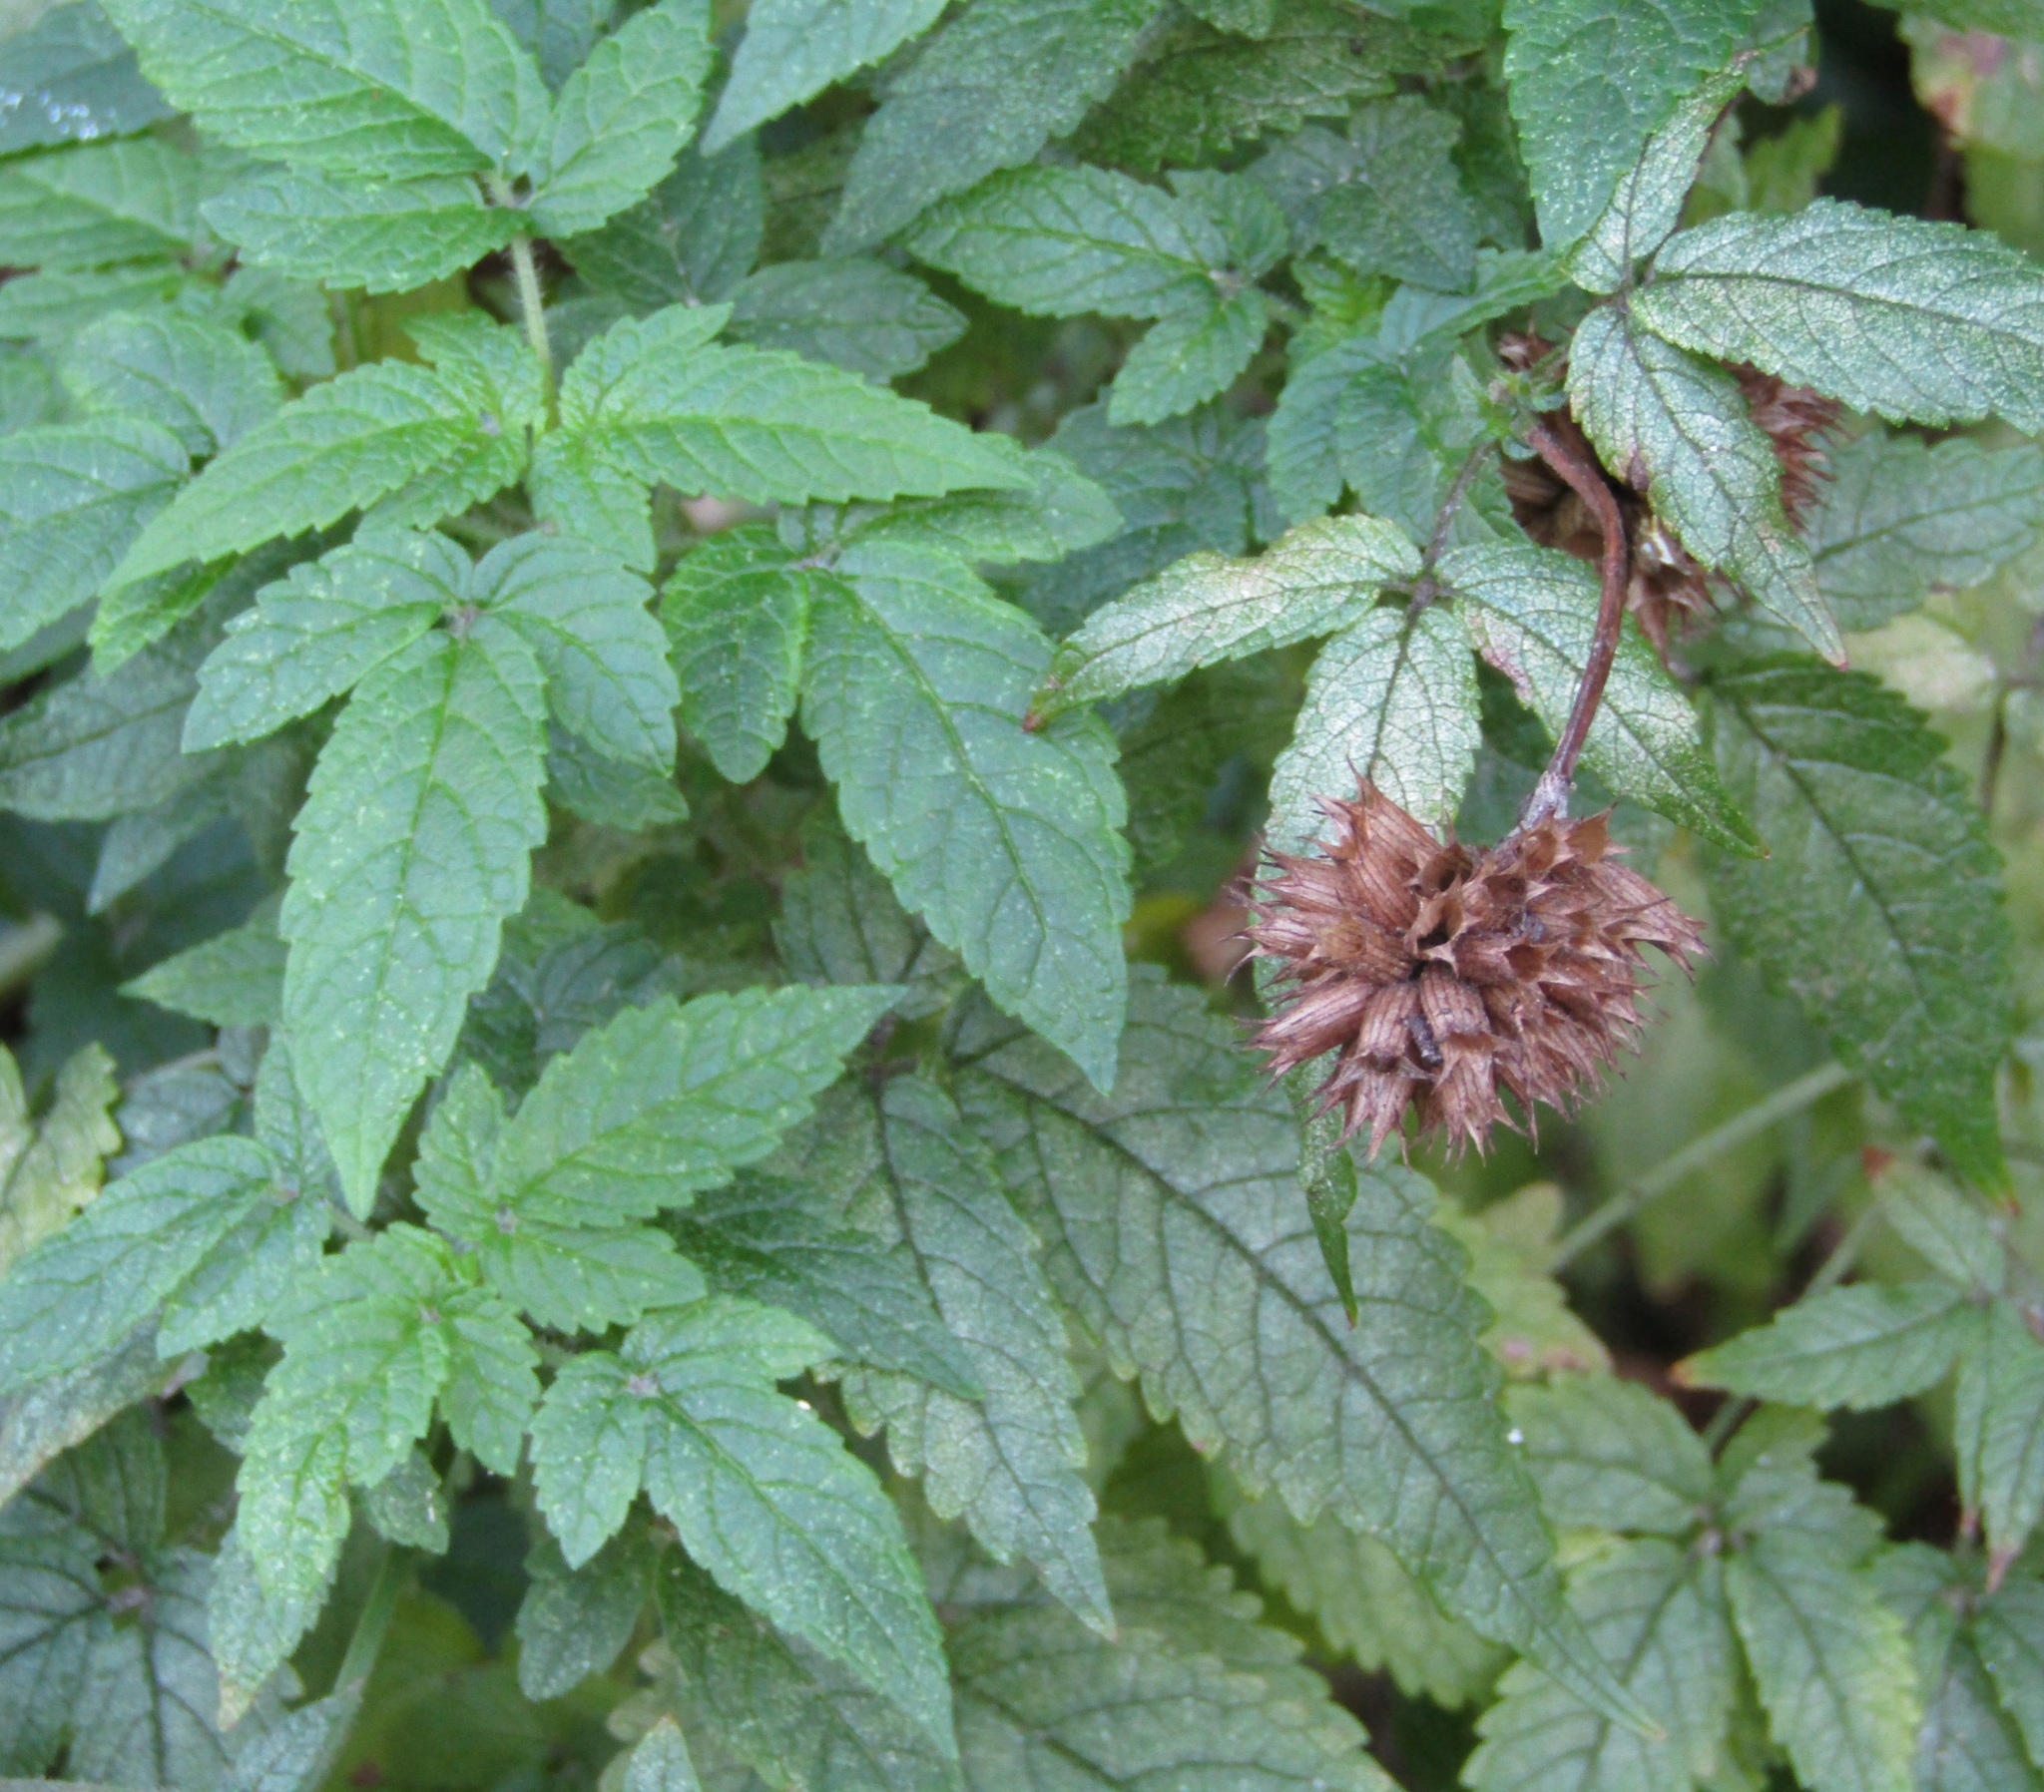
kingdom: Plantae
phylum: Tracheophyta
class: Magnoliopsida
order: Lamiales
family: Lamiaceae
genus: Cedronella
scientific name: Cedronella canariensis
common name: Canary islands balm
